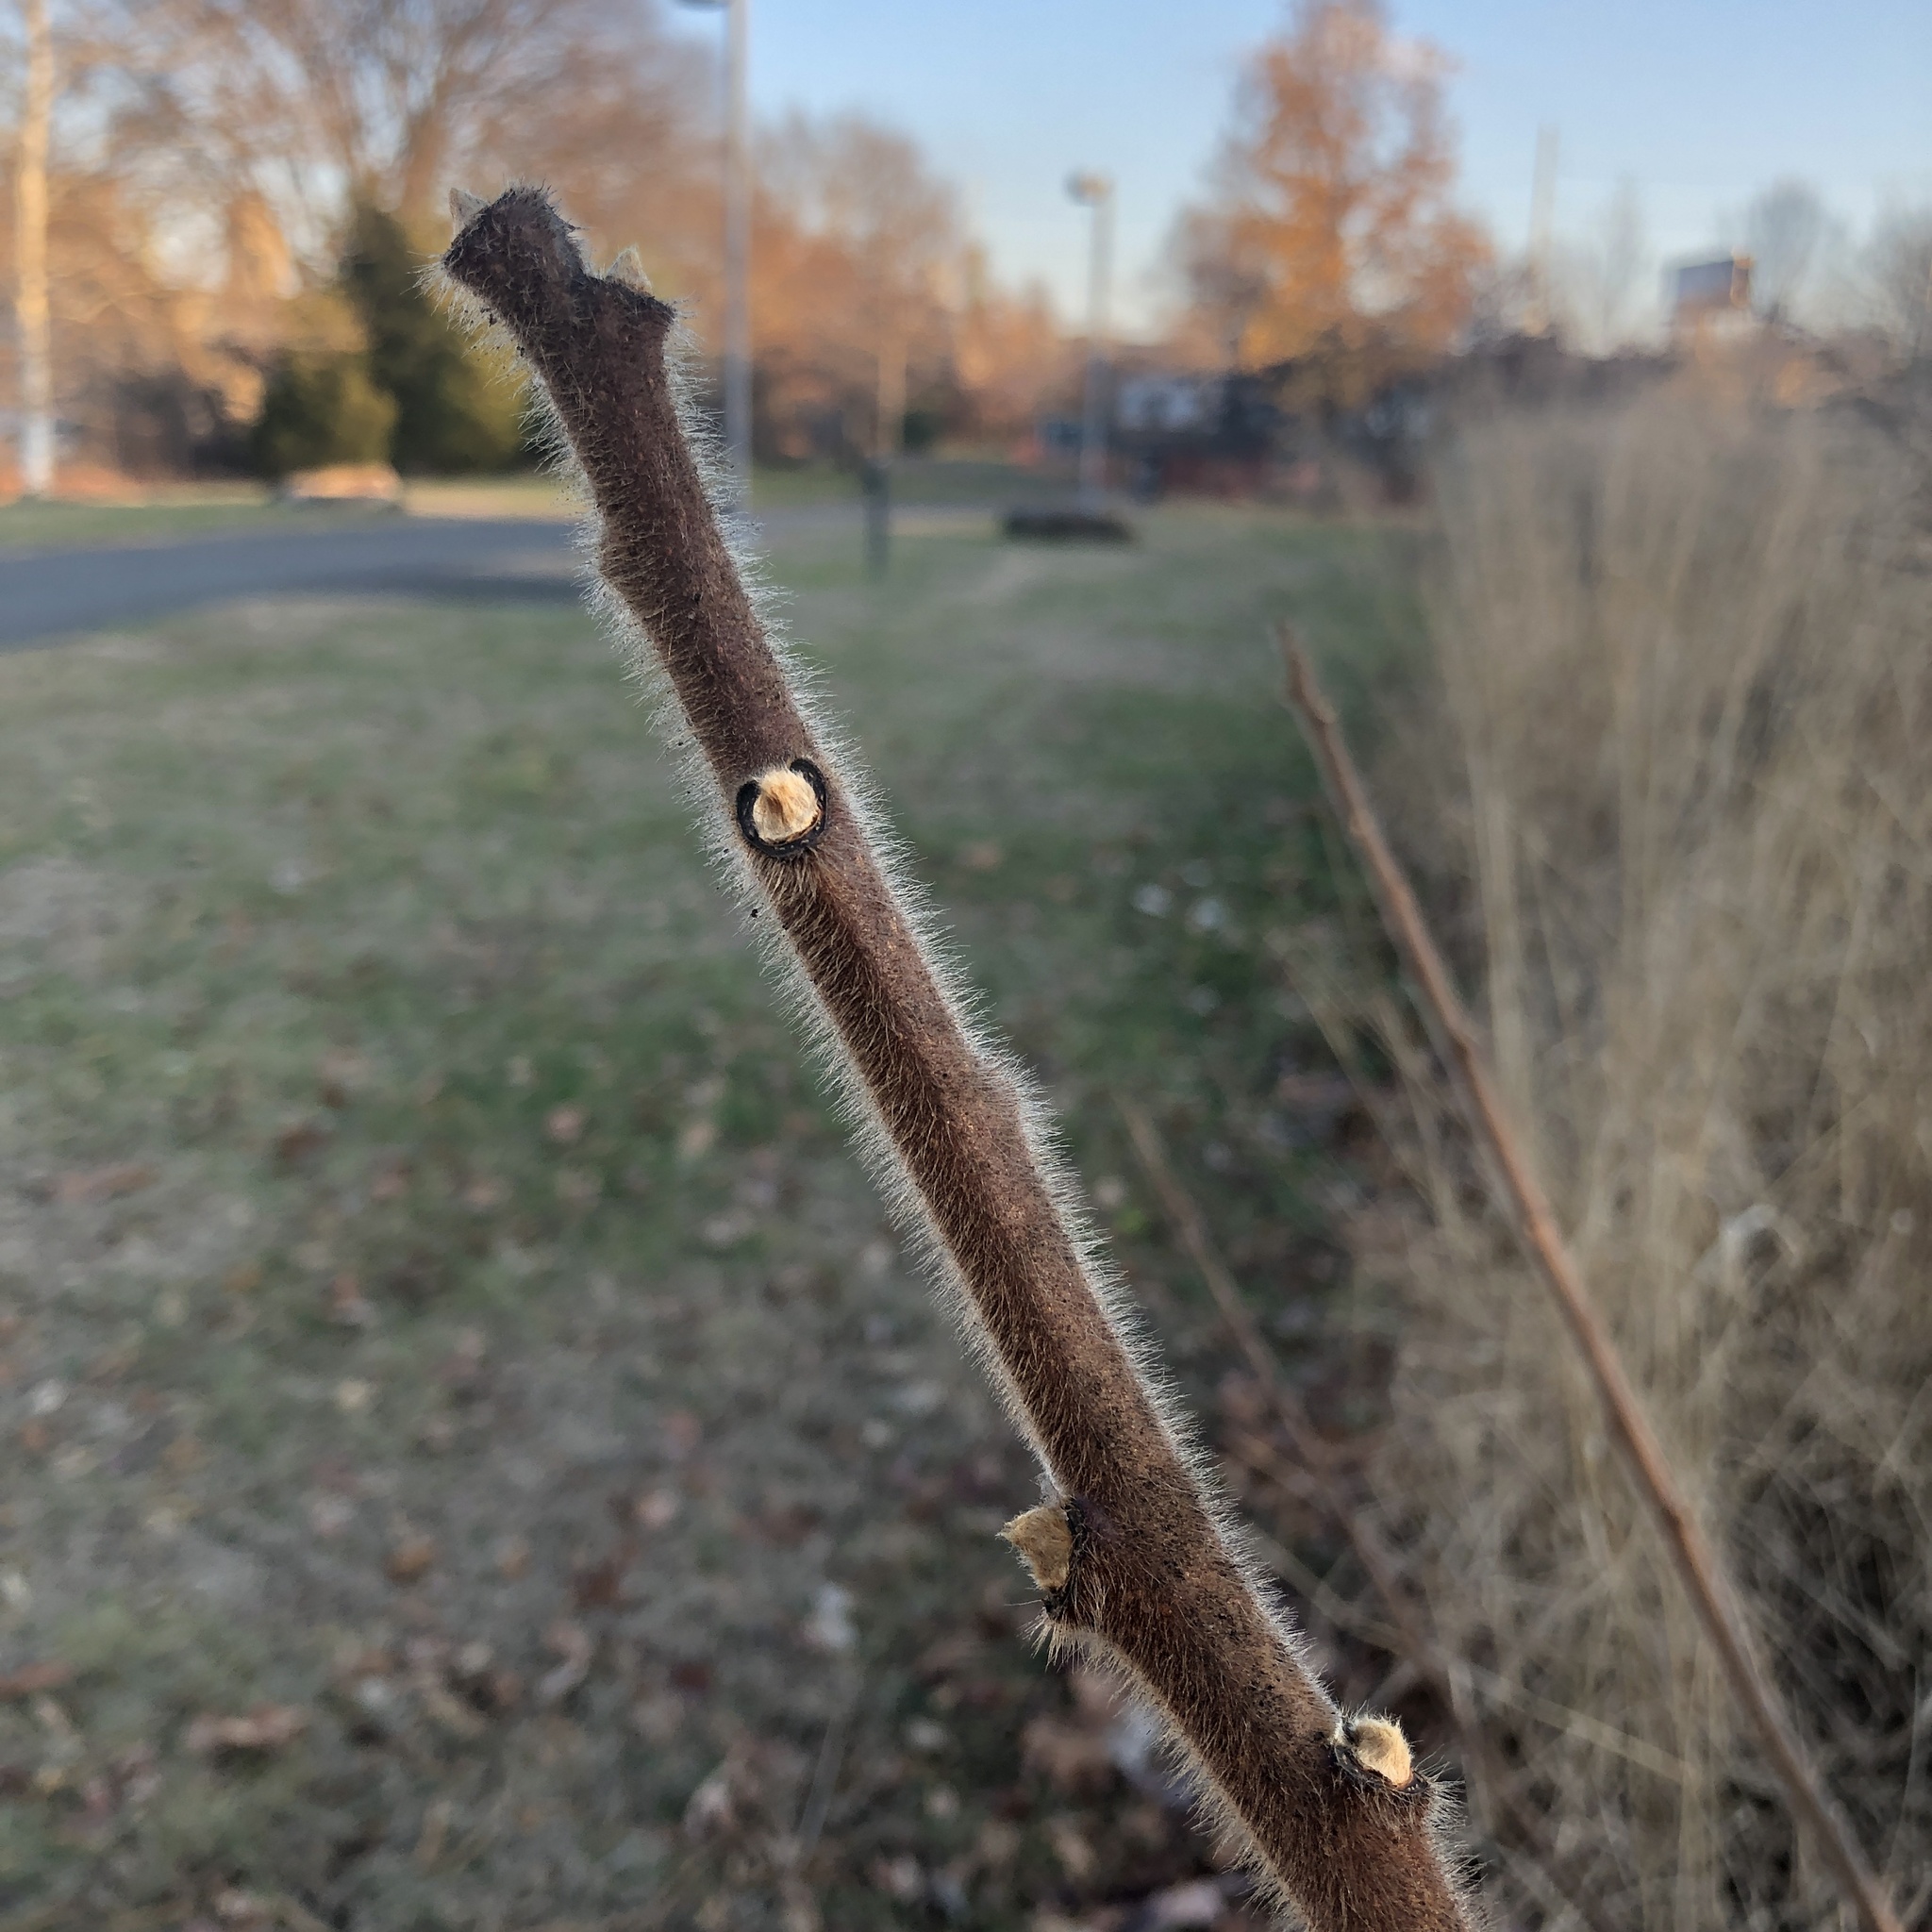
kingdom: Plantae
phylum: Tracheophyta
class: Magnoliopsida
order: Sapindales
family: Anacardiaceae
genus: Rhus
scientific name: Rhus typhina
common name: Staghorn sumac
